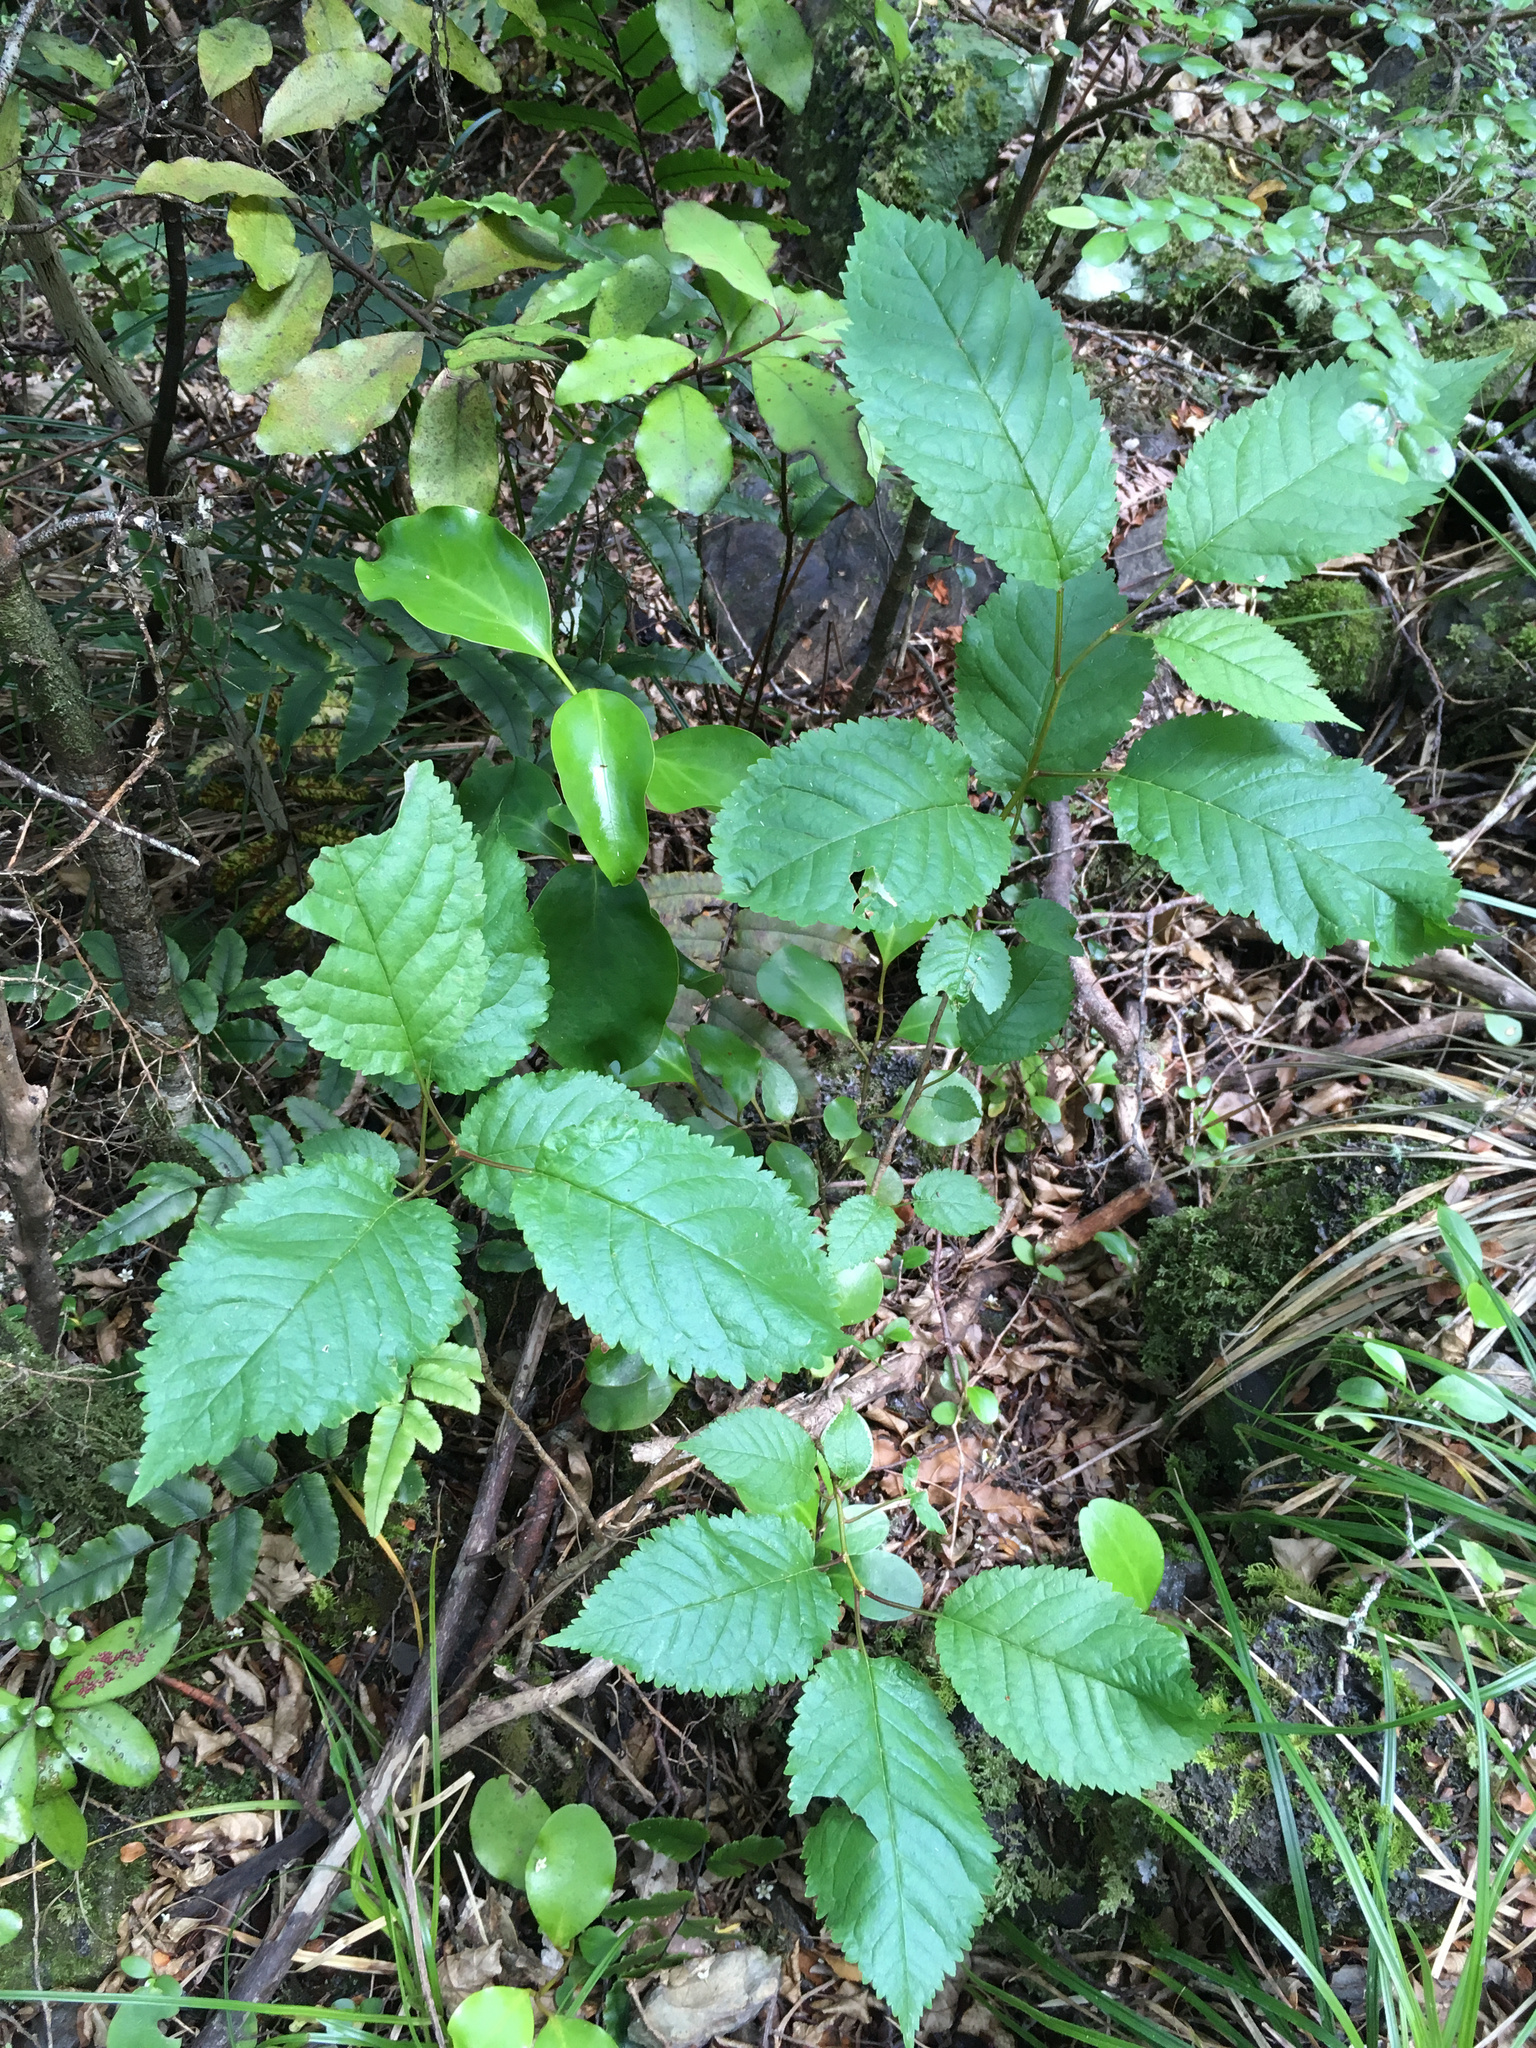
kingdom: Plantae
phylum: Tracheophyta
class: Magnoliopsida
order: Rosales
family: Rosaceae
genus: Prunus
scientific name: Prunus avium
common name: Sweet cherry
